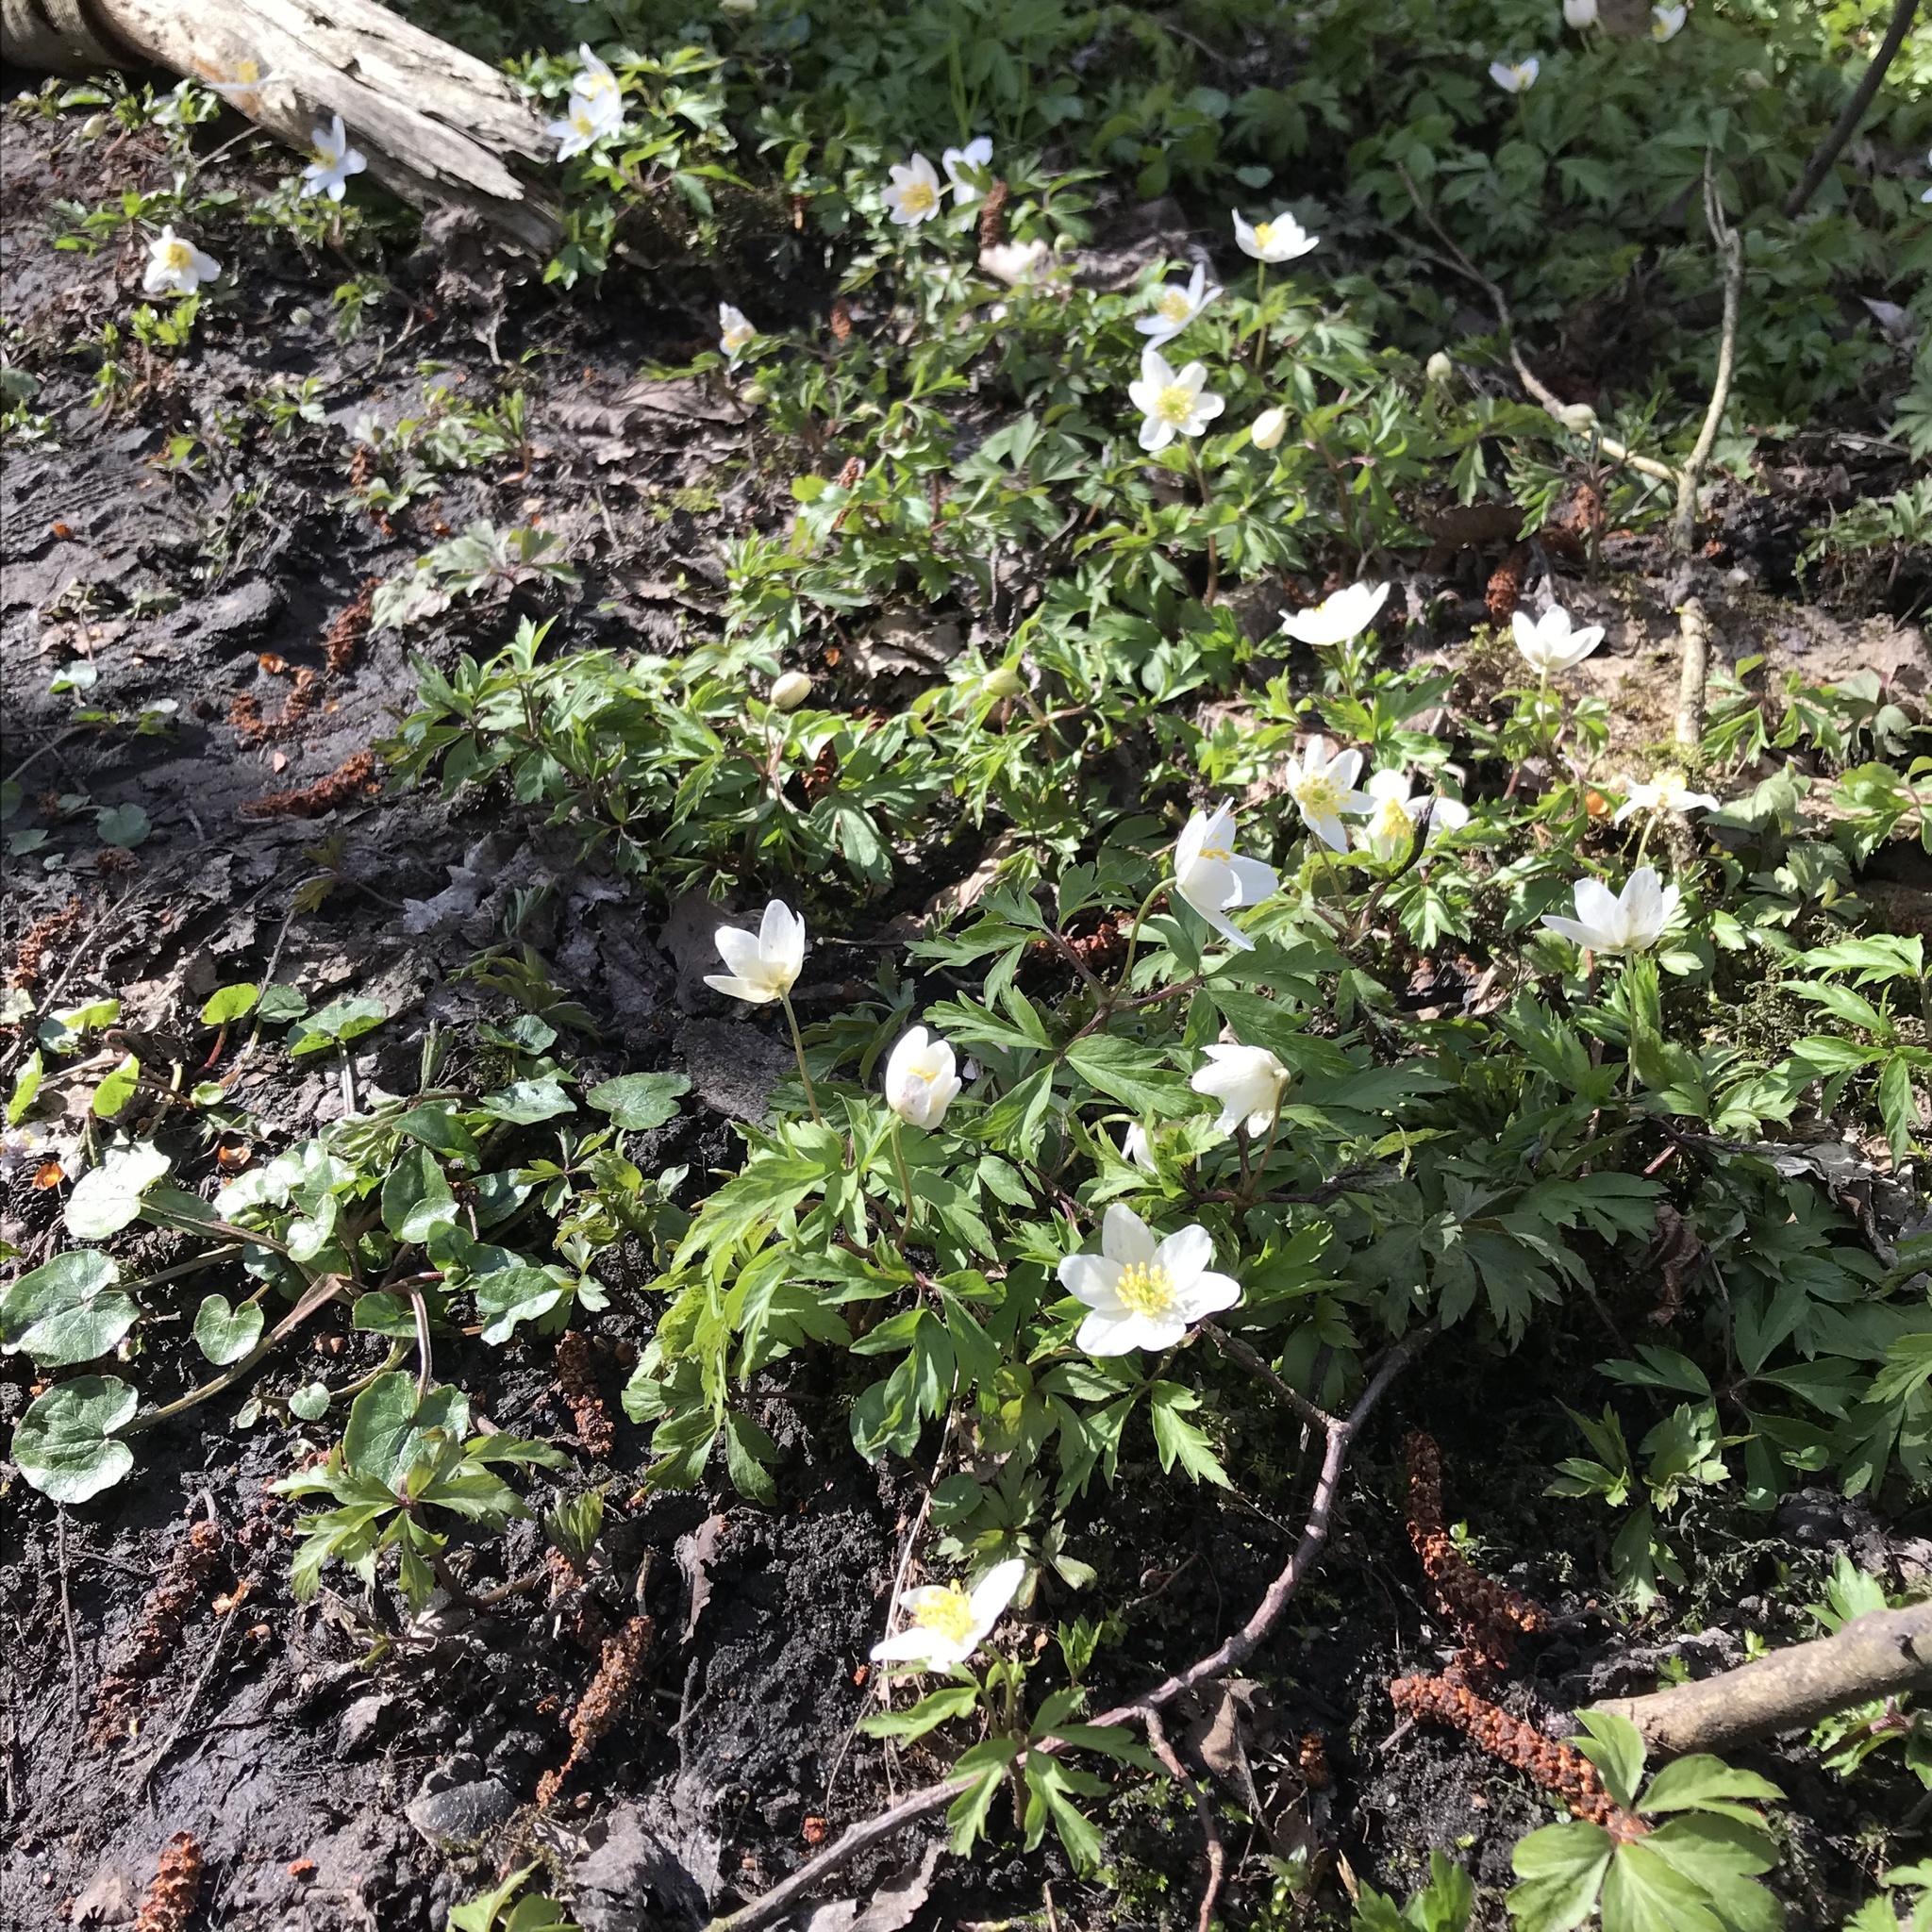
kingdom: Plantae
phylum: Tracheophyta
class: Magnoliopsida
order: Ranunculales
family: Ranunculaceae
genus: Anemone
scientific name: Anemone nemorosa
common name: Wood anemone
